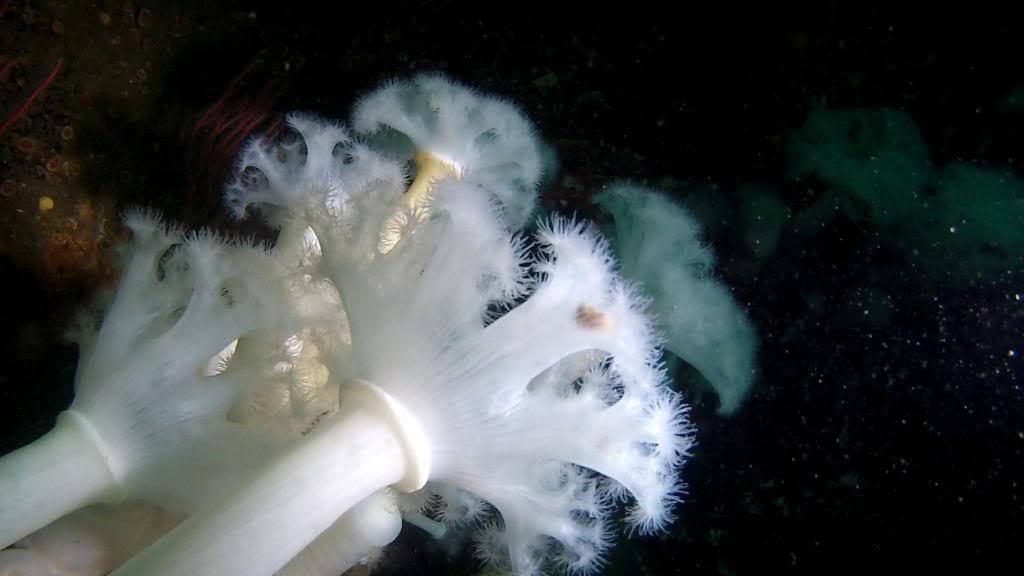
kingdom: Animalia
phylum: Cnidaria
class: Anthozoa
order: Actiniaria
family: Metridiidae
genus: Metridium
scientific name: Metridium farcimen
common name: Gigantic anemone
